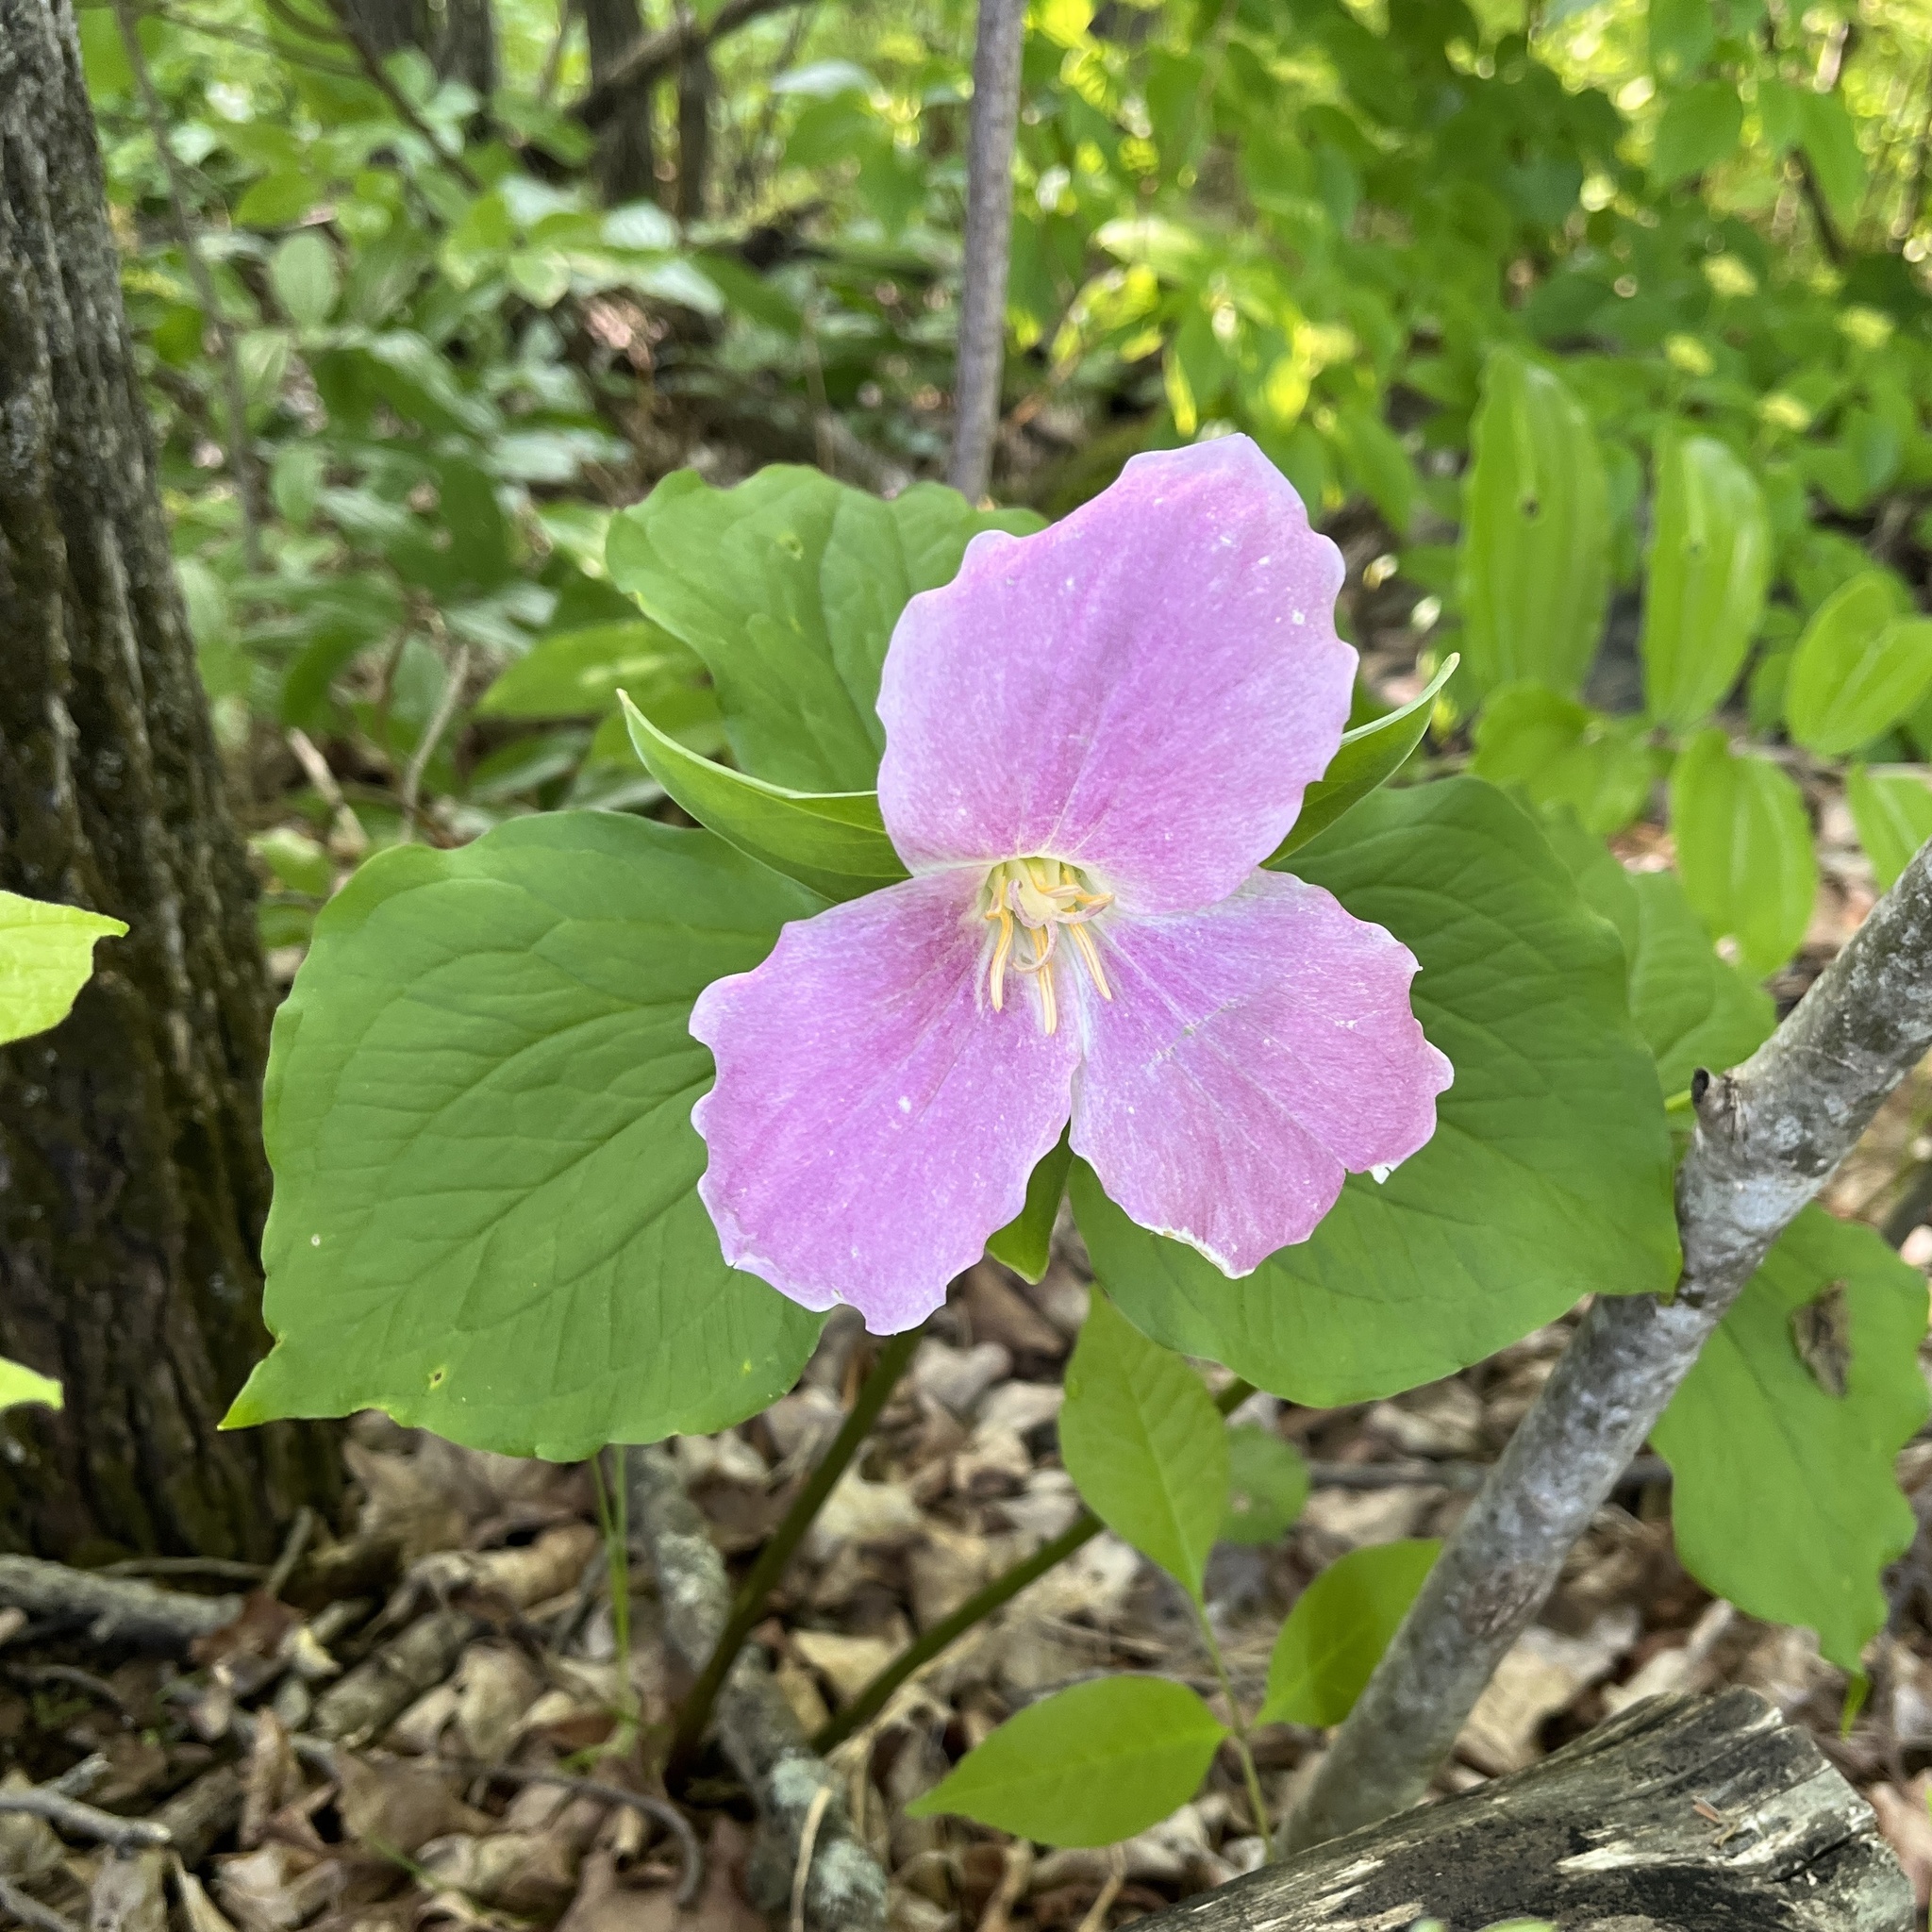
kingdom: Plantae
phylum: Tracheophyta
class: Liliopsida
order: Liliales
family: Melanthiaceae
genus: Trillium
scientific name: Trillium grandiflorum
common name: Great white trillium
